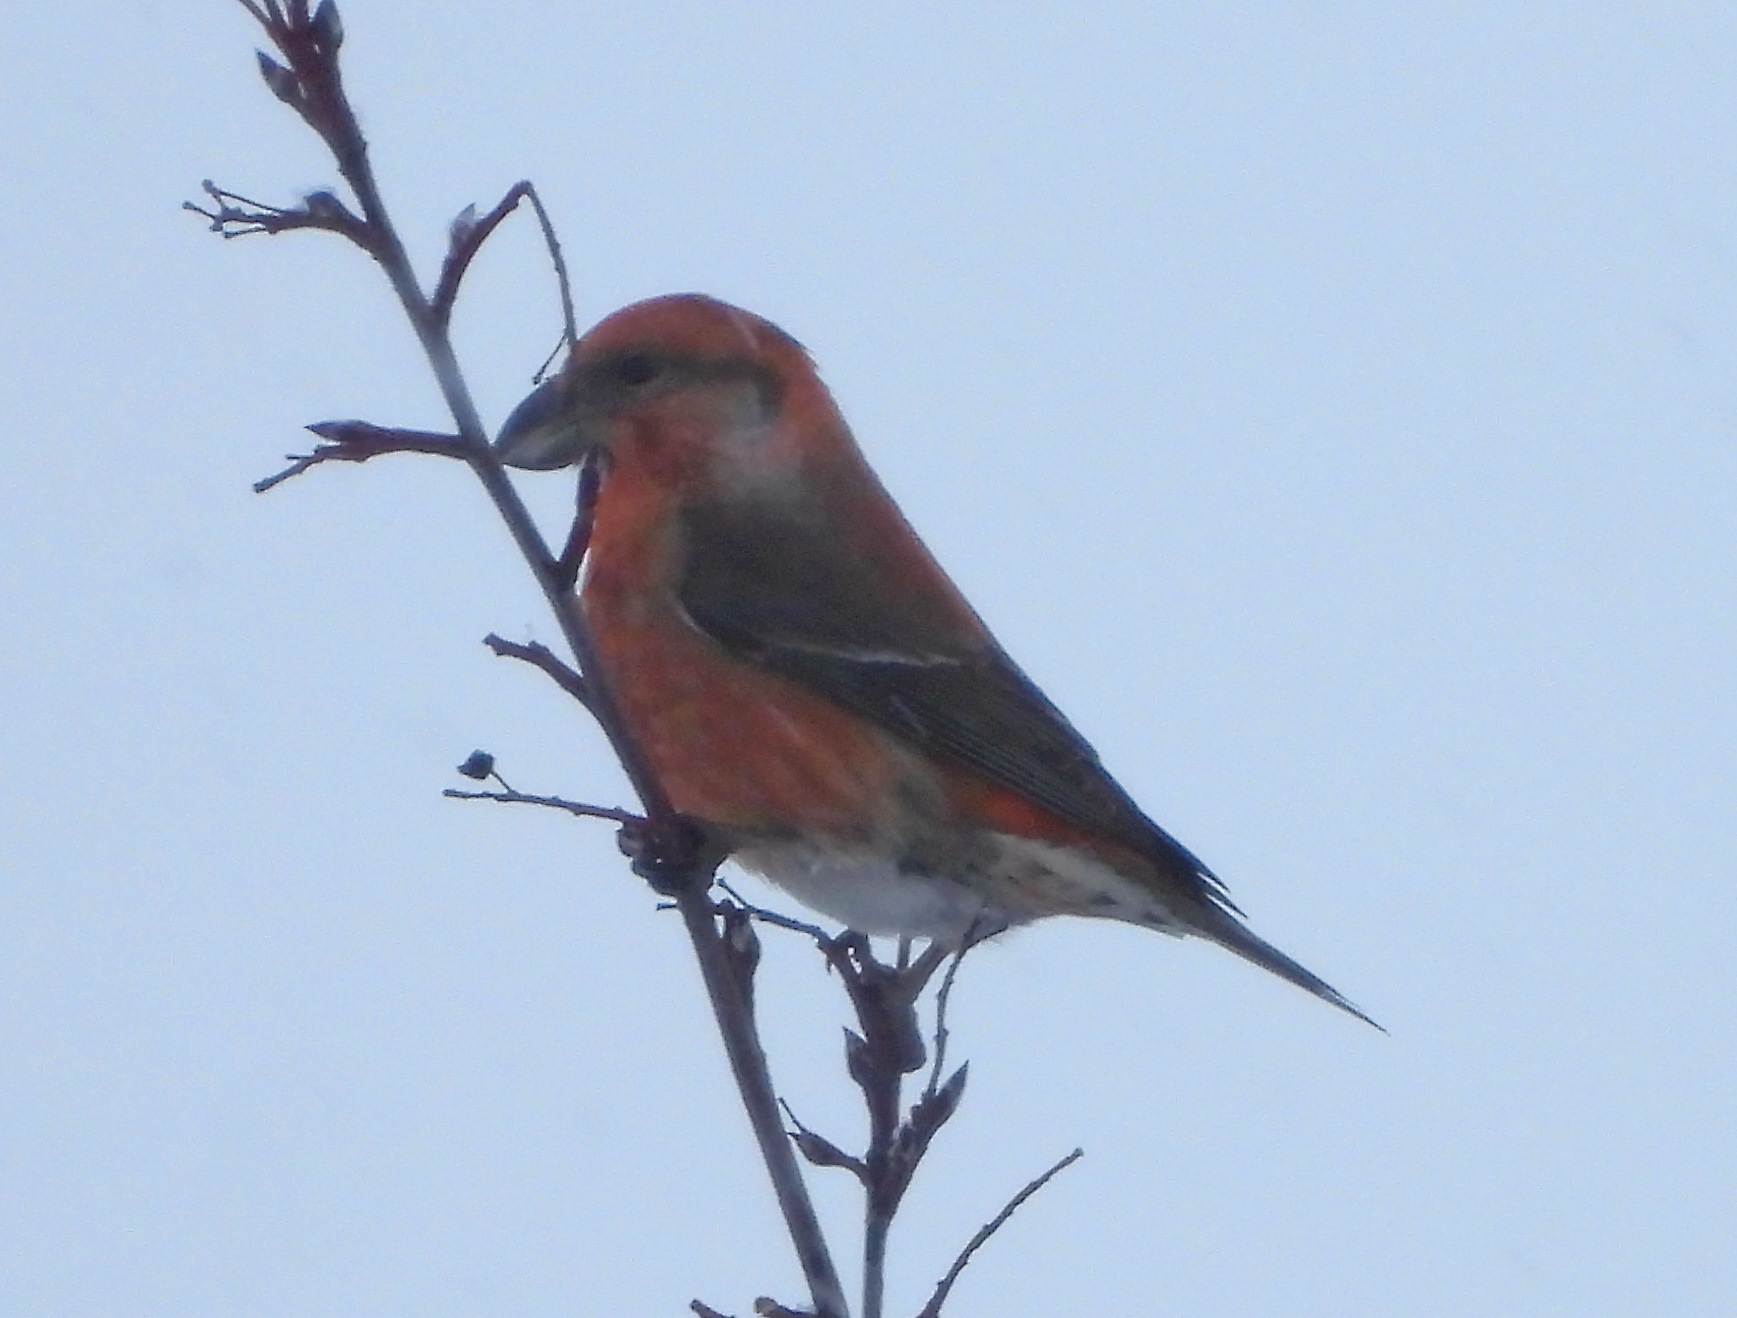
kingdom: Animalia
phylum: Chordata
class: Aves
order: Passeriformes
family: Fringillidae
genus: Loxia
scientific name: Loxia curvirostra
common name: Red crossbill
